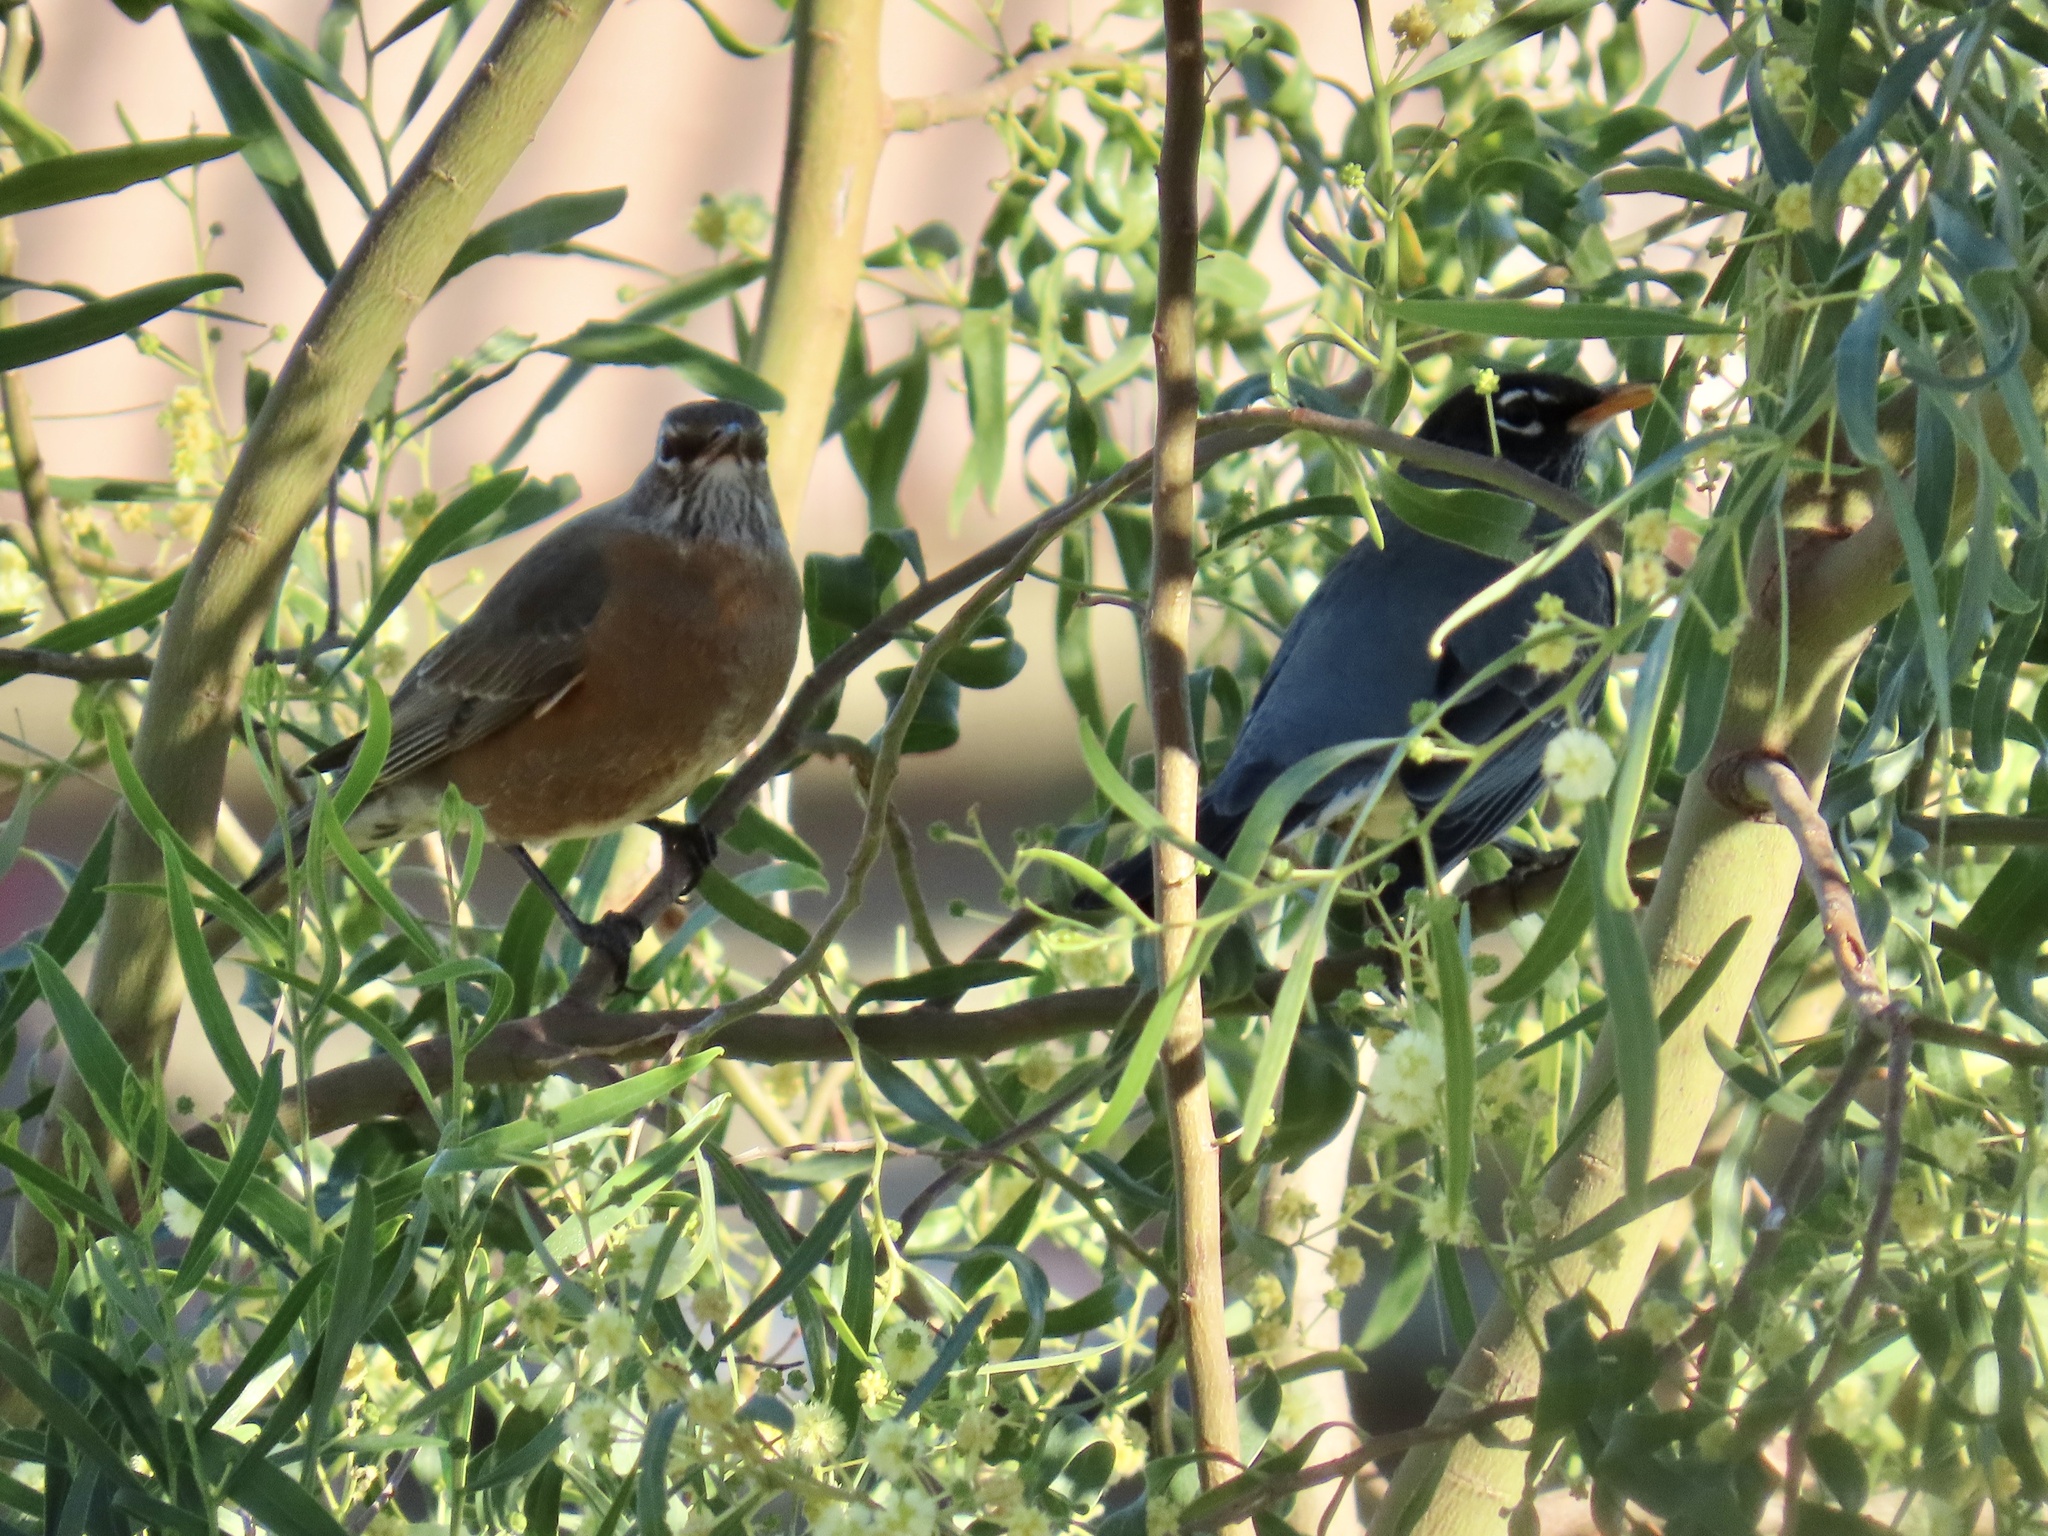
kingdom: Animalia
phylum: Chordata
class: Aves
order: Passeriformes
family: Turdidae
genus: Turdus
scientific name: Turdus migratorius
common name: American robin
